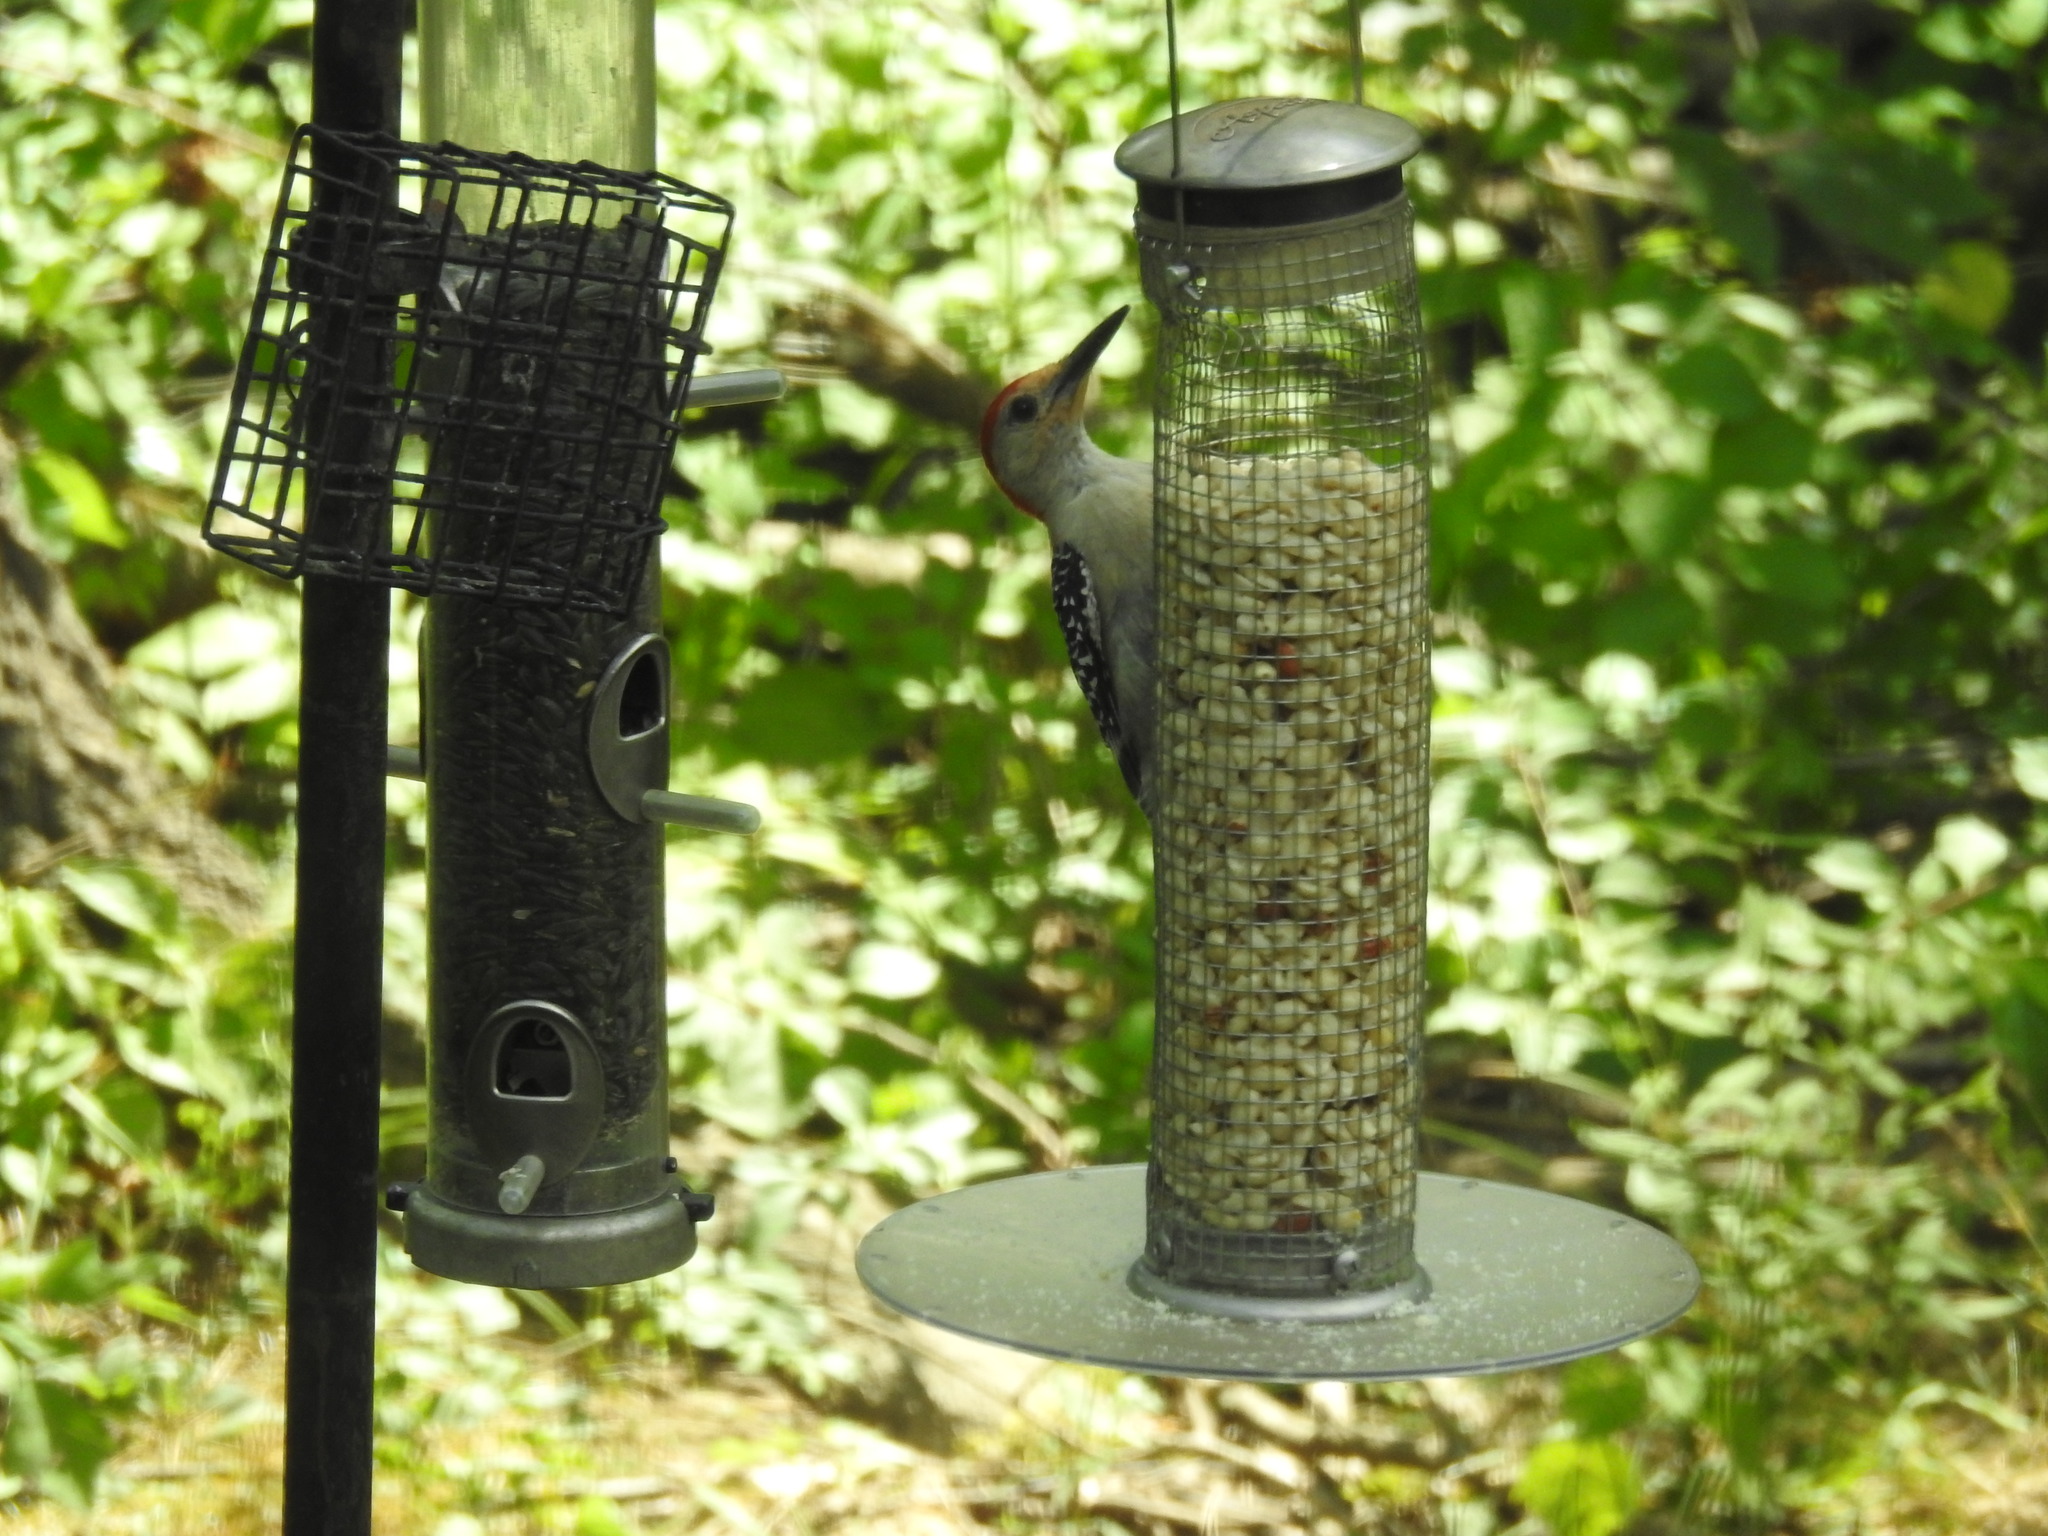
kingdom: Animalia
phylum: Chordata
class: Aves
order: Piciformes
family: Picidae
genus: Melanerpes
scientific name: Melanerpes carolinus
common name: Red-bellied woodpecker
